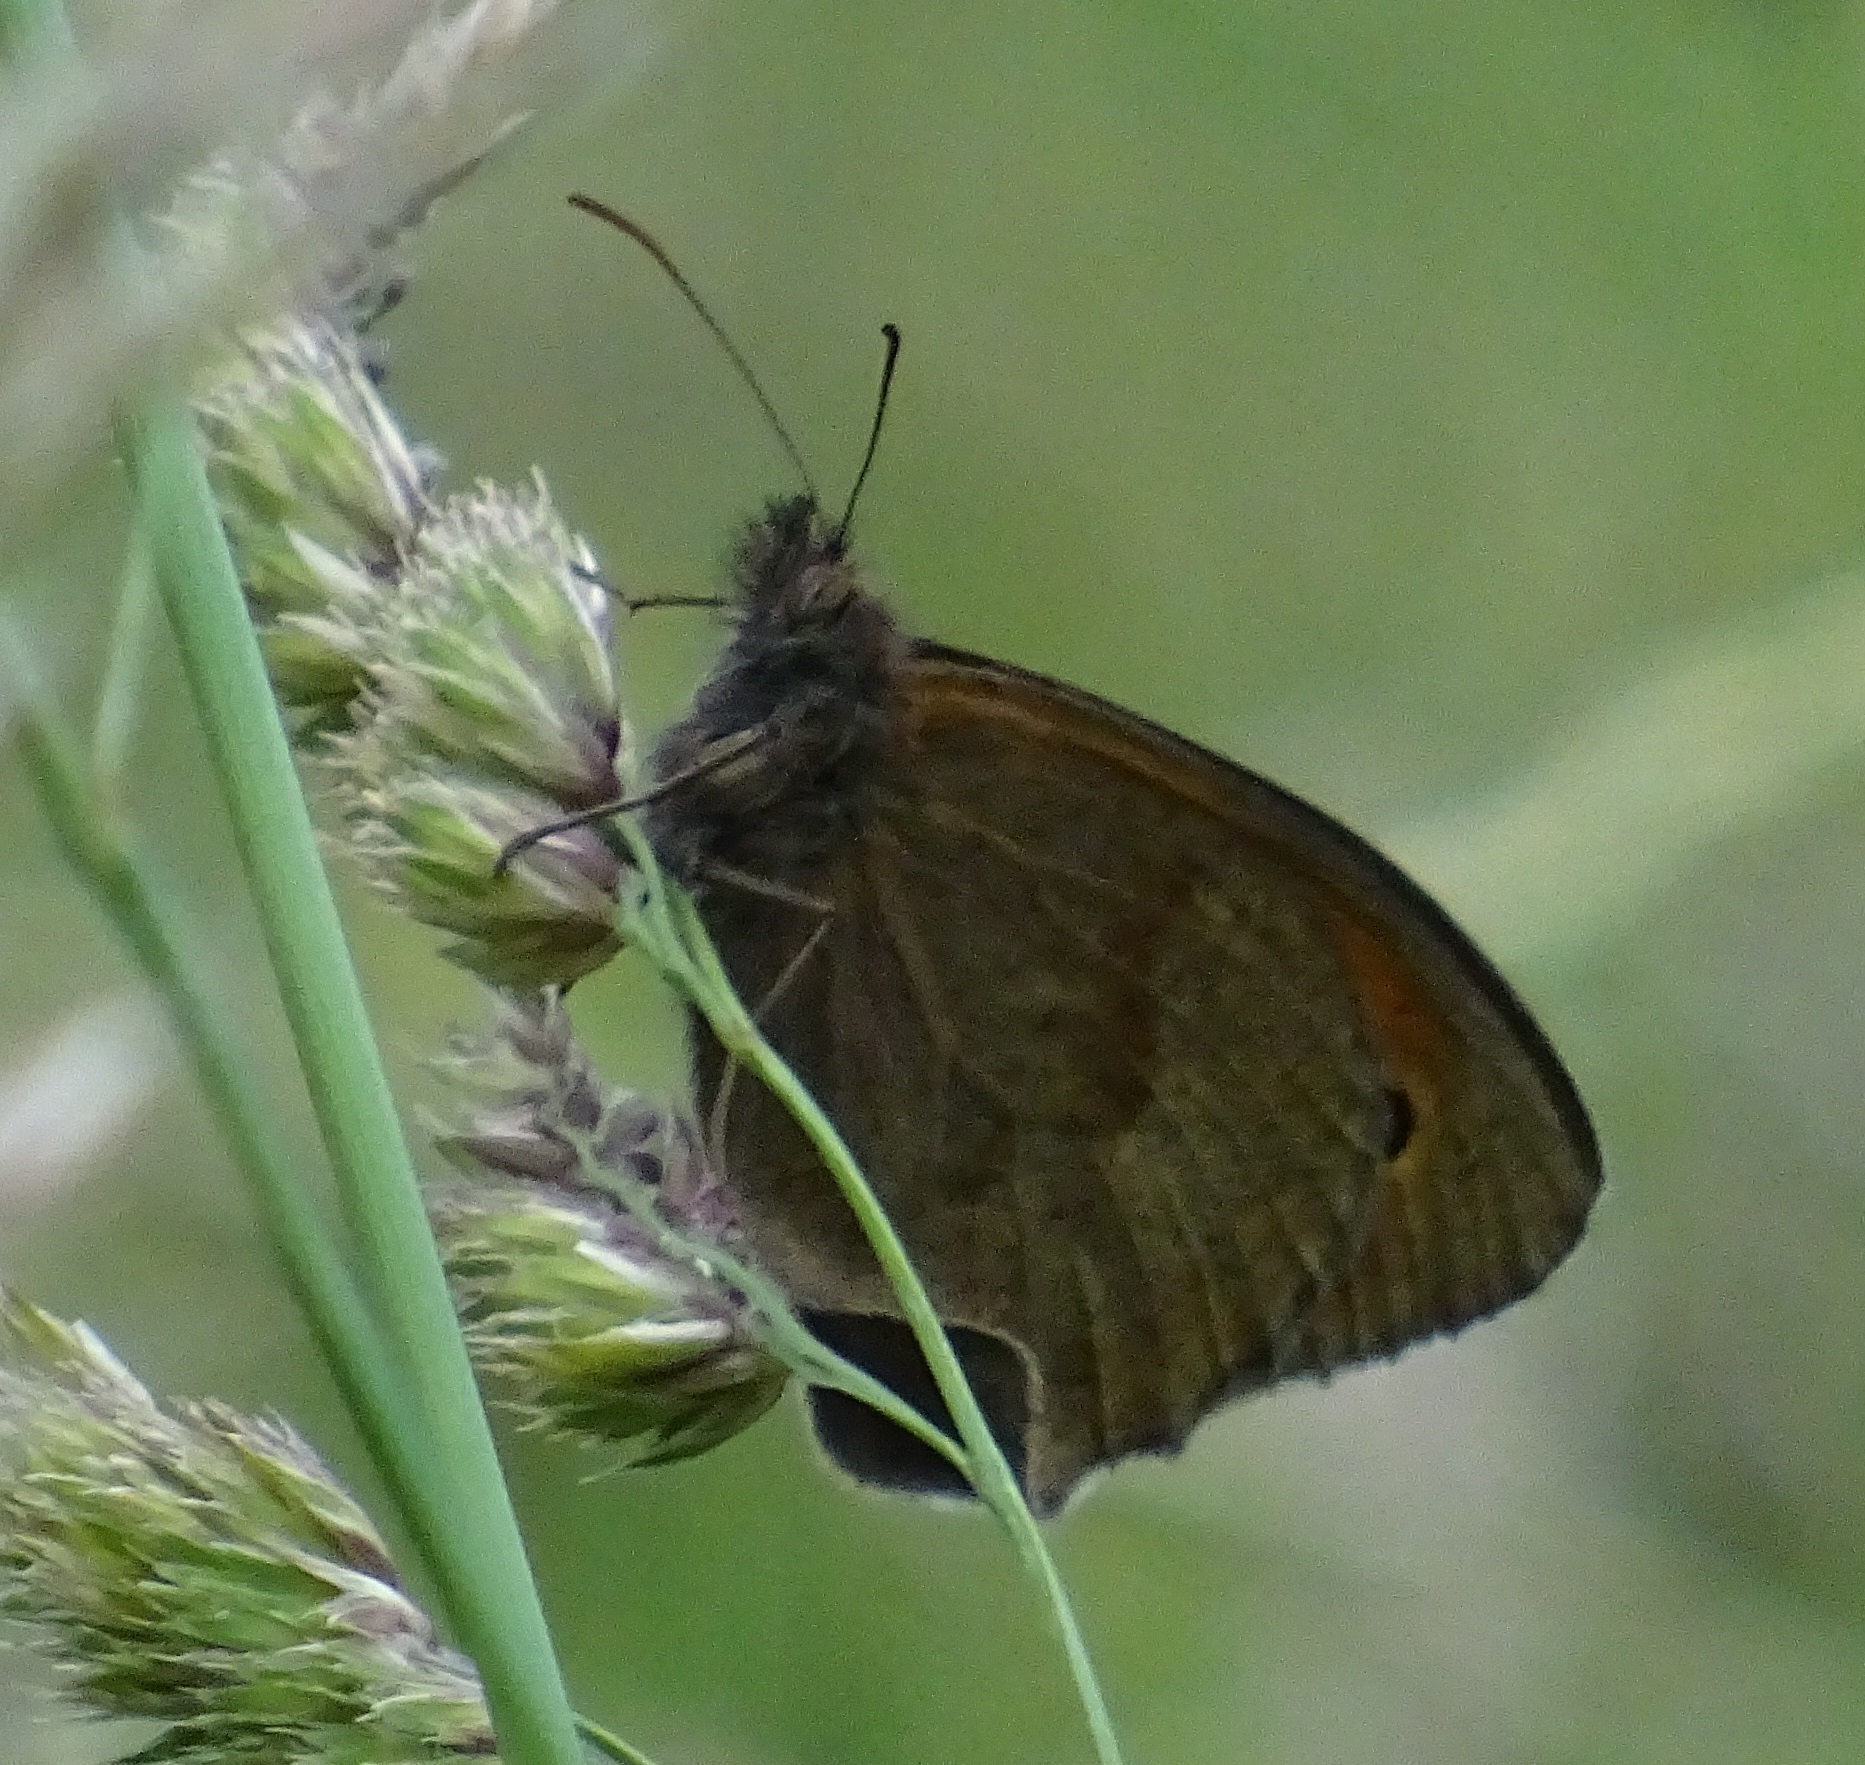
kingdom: Animalia
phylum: Arthropoda
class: Insecta
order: Lepidoptera
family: Nymphalidae
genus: Maniola
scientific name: Maniola jurtina
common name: Meadow brown
